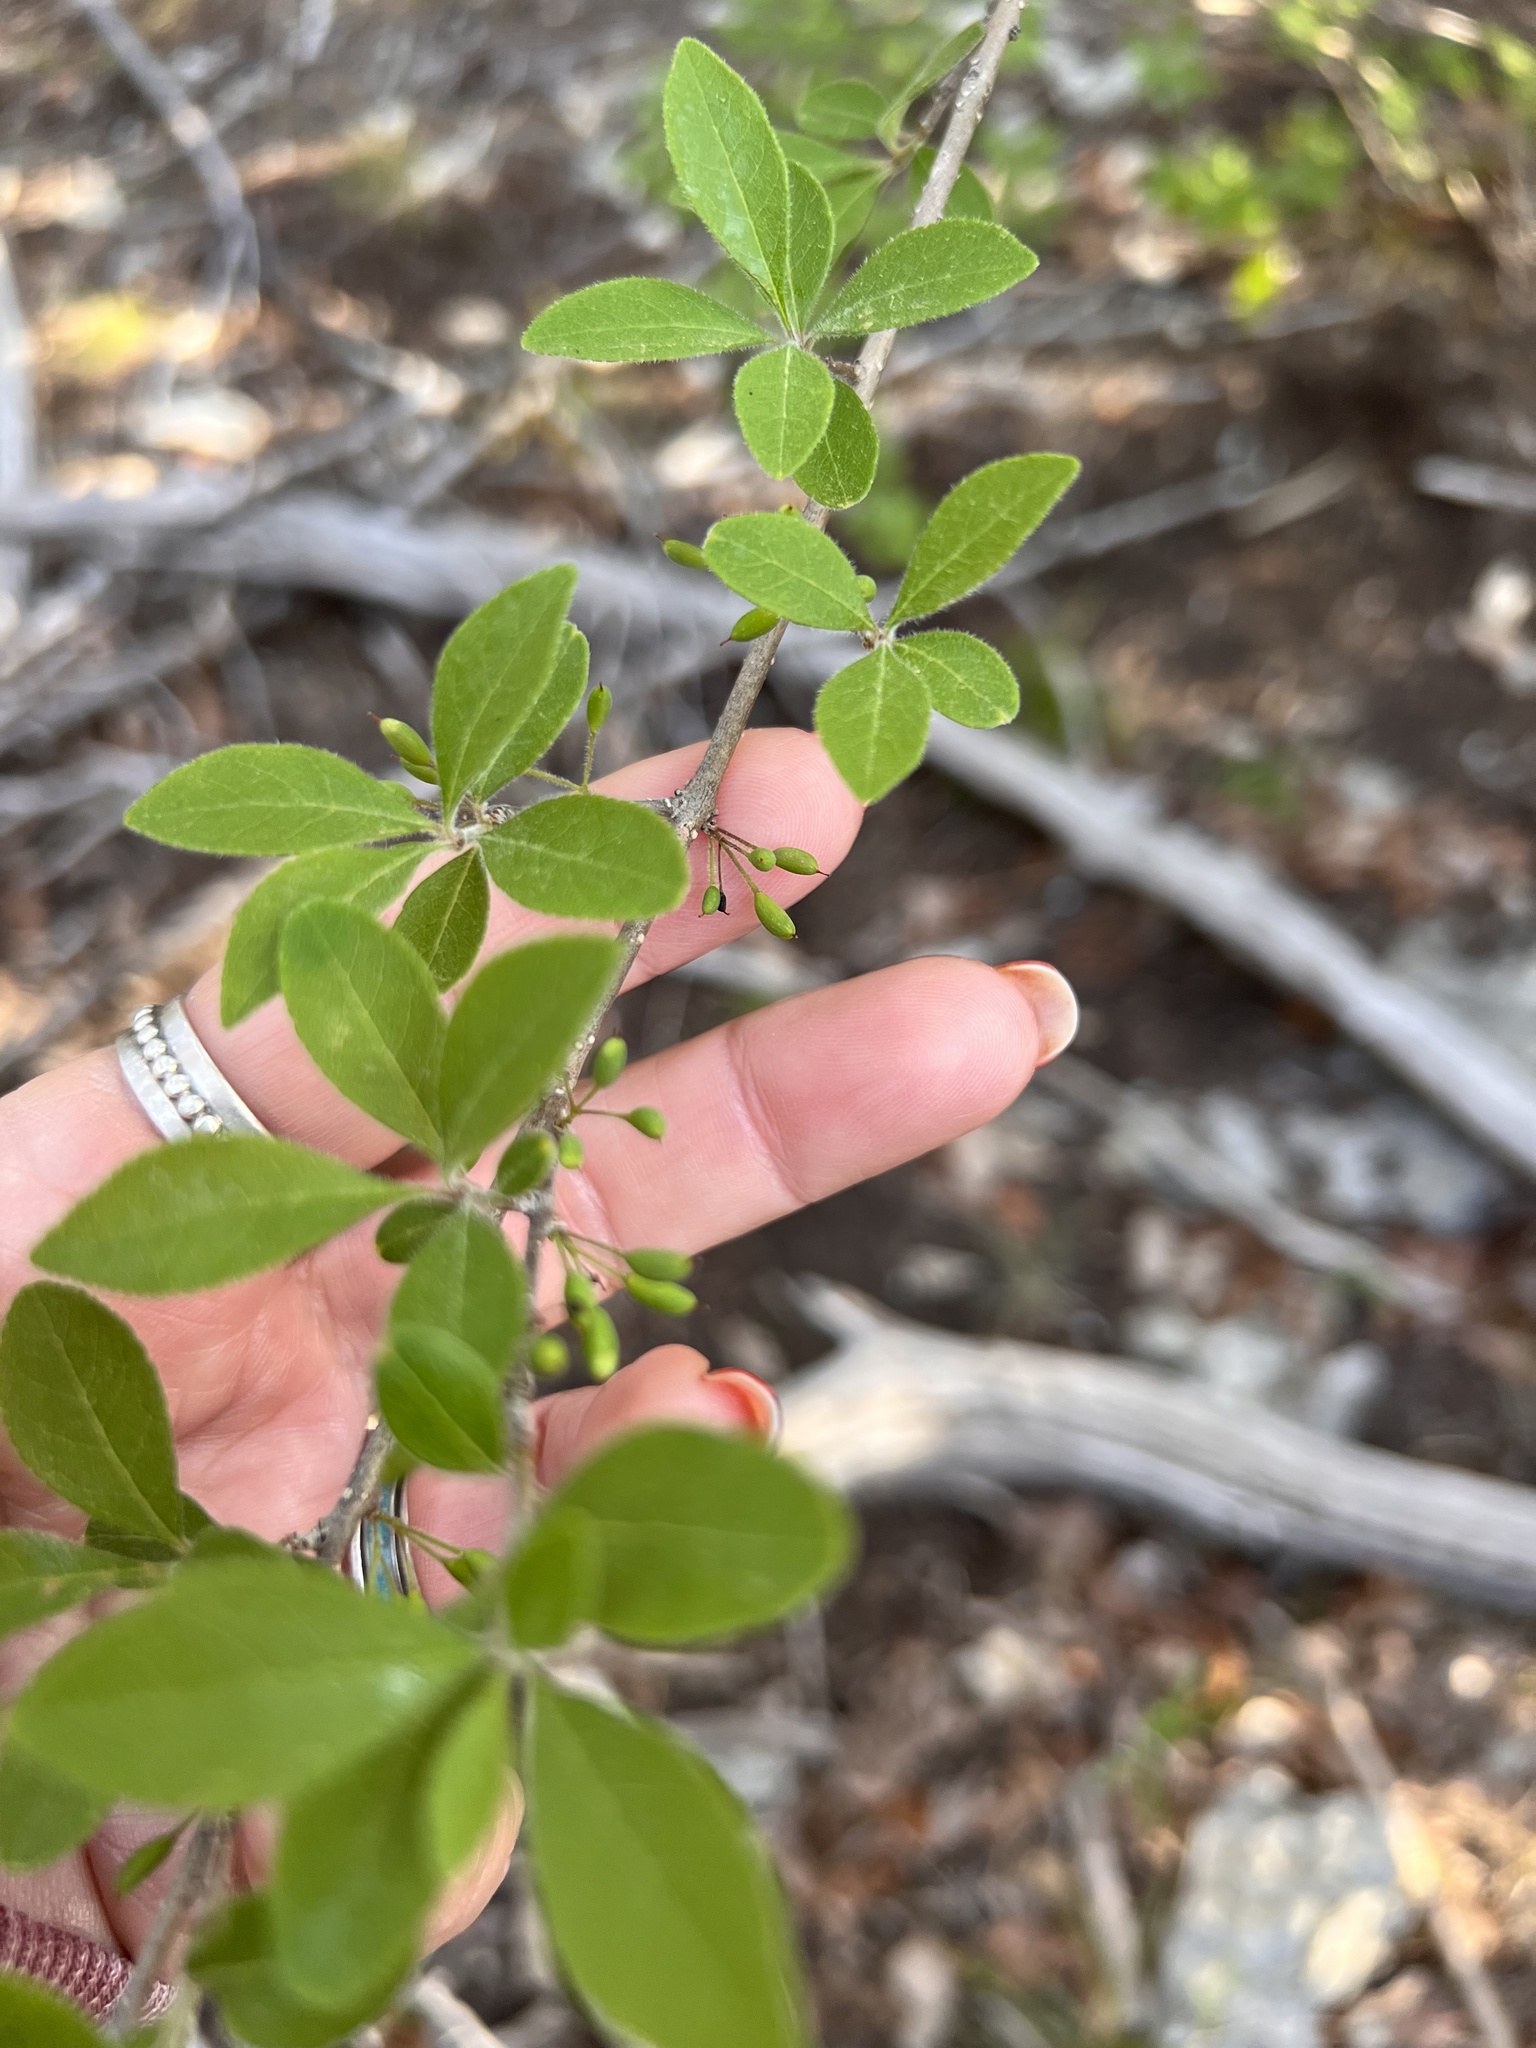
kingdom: Plantae
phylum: Tracheophyta
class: Magnoliopsida
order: Lamiales
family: Oleaceae
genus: Forestiera
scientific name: Forestiera pubescens
